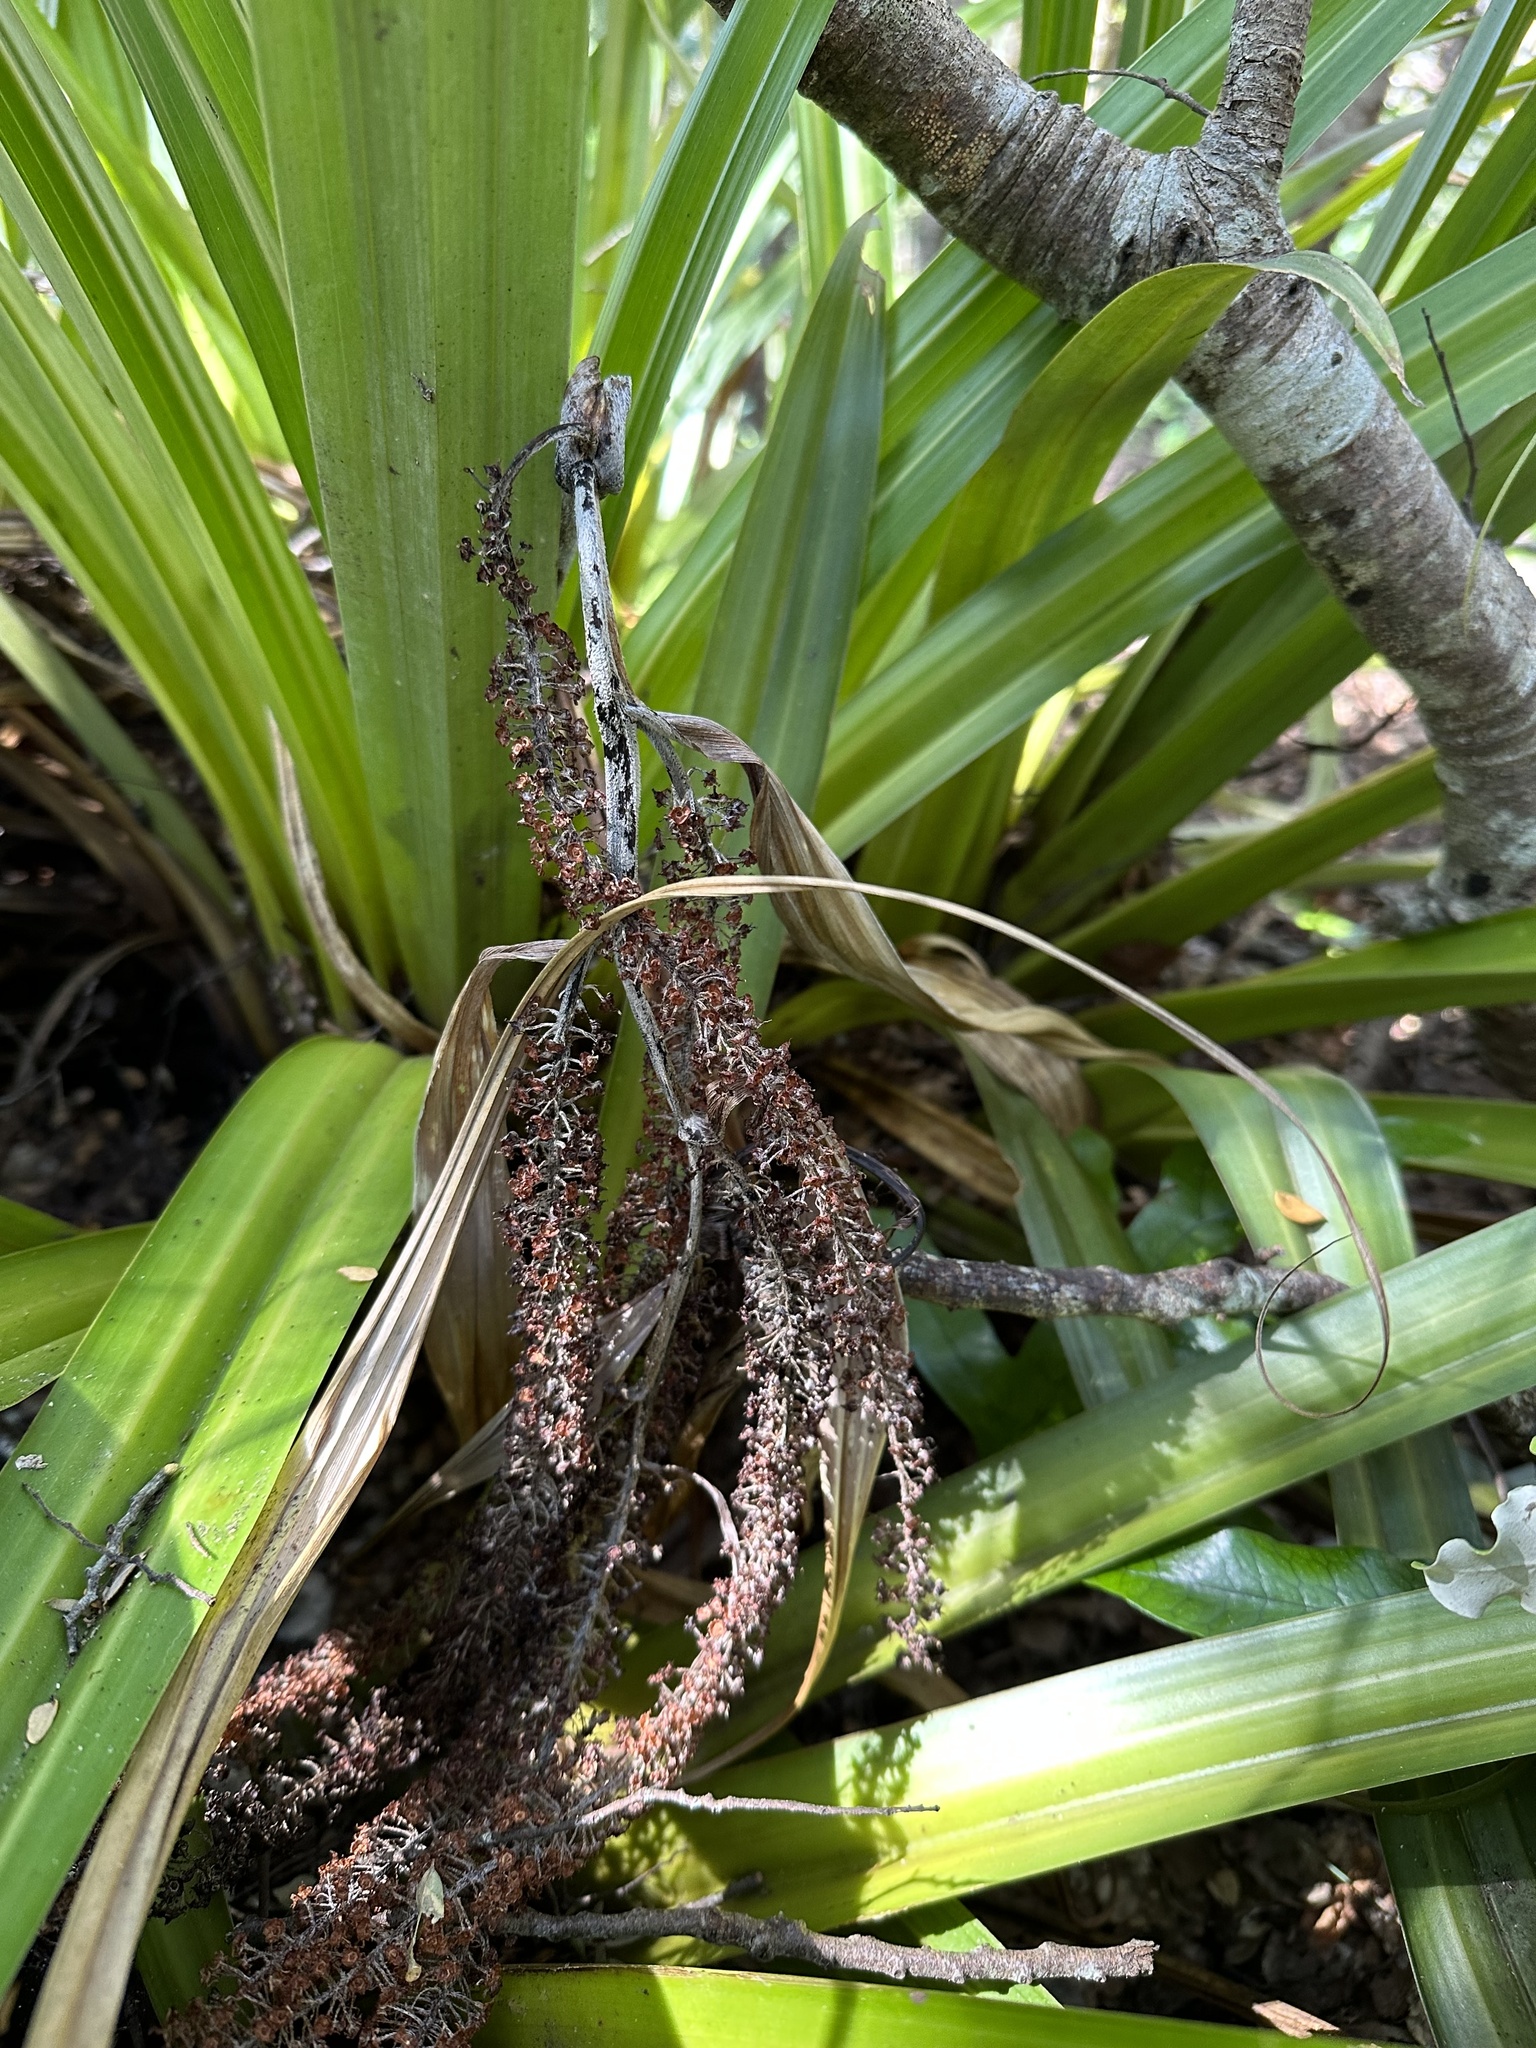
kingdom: Plantae
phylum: Tracheophyta
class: Liliopsida
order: Asparagales
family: Asteliaceae
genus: Astelia
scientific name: Astelia hastata
